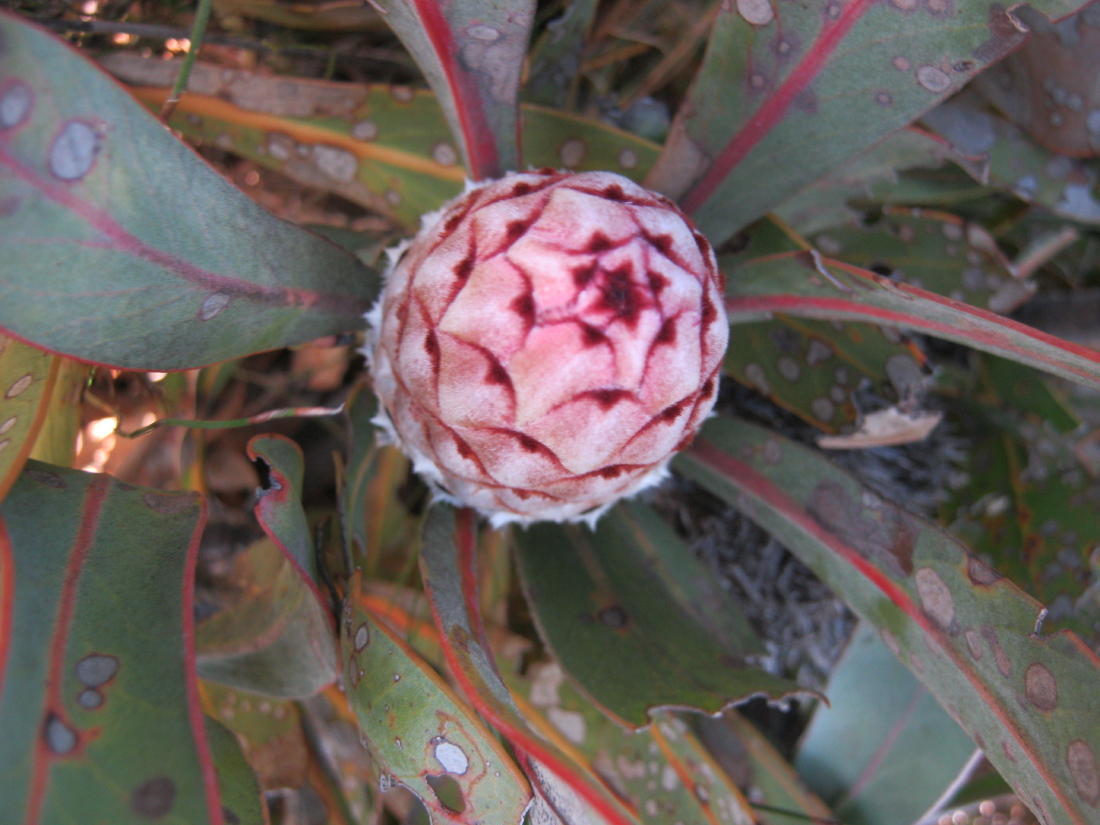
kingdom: Plantae
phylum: Tracheophyta
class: Magnoliopsida
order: Proteales
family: Proteaceae
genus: Protea
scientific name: Protea lorifolia
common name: Strap-leaved protea
